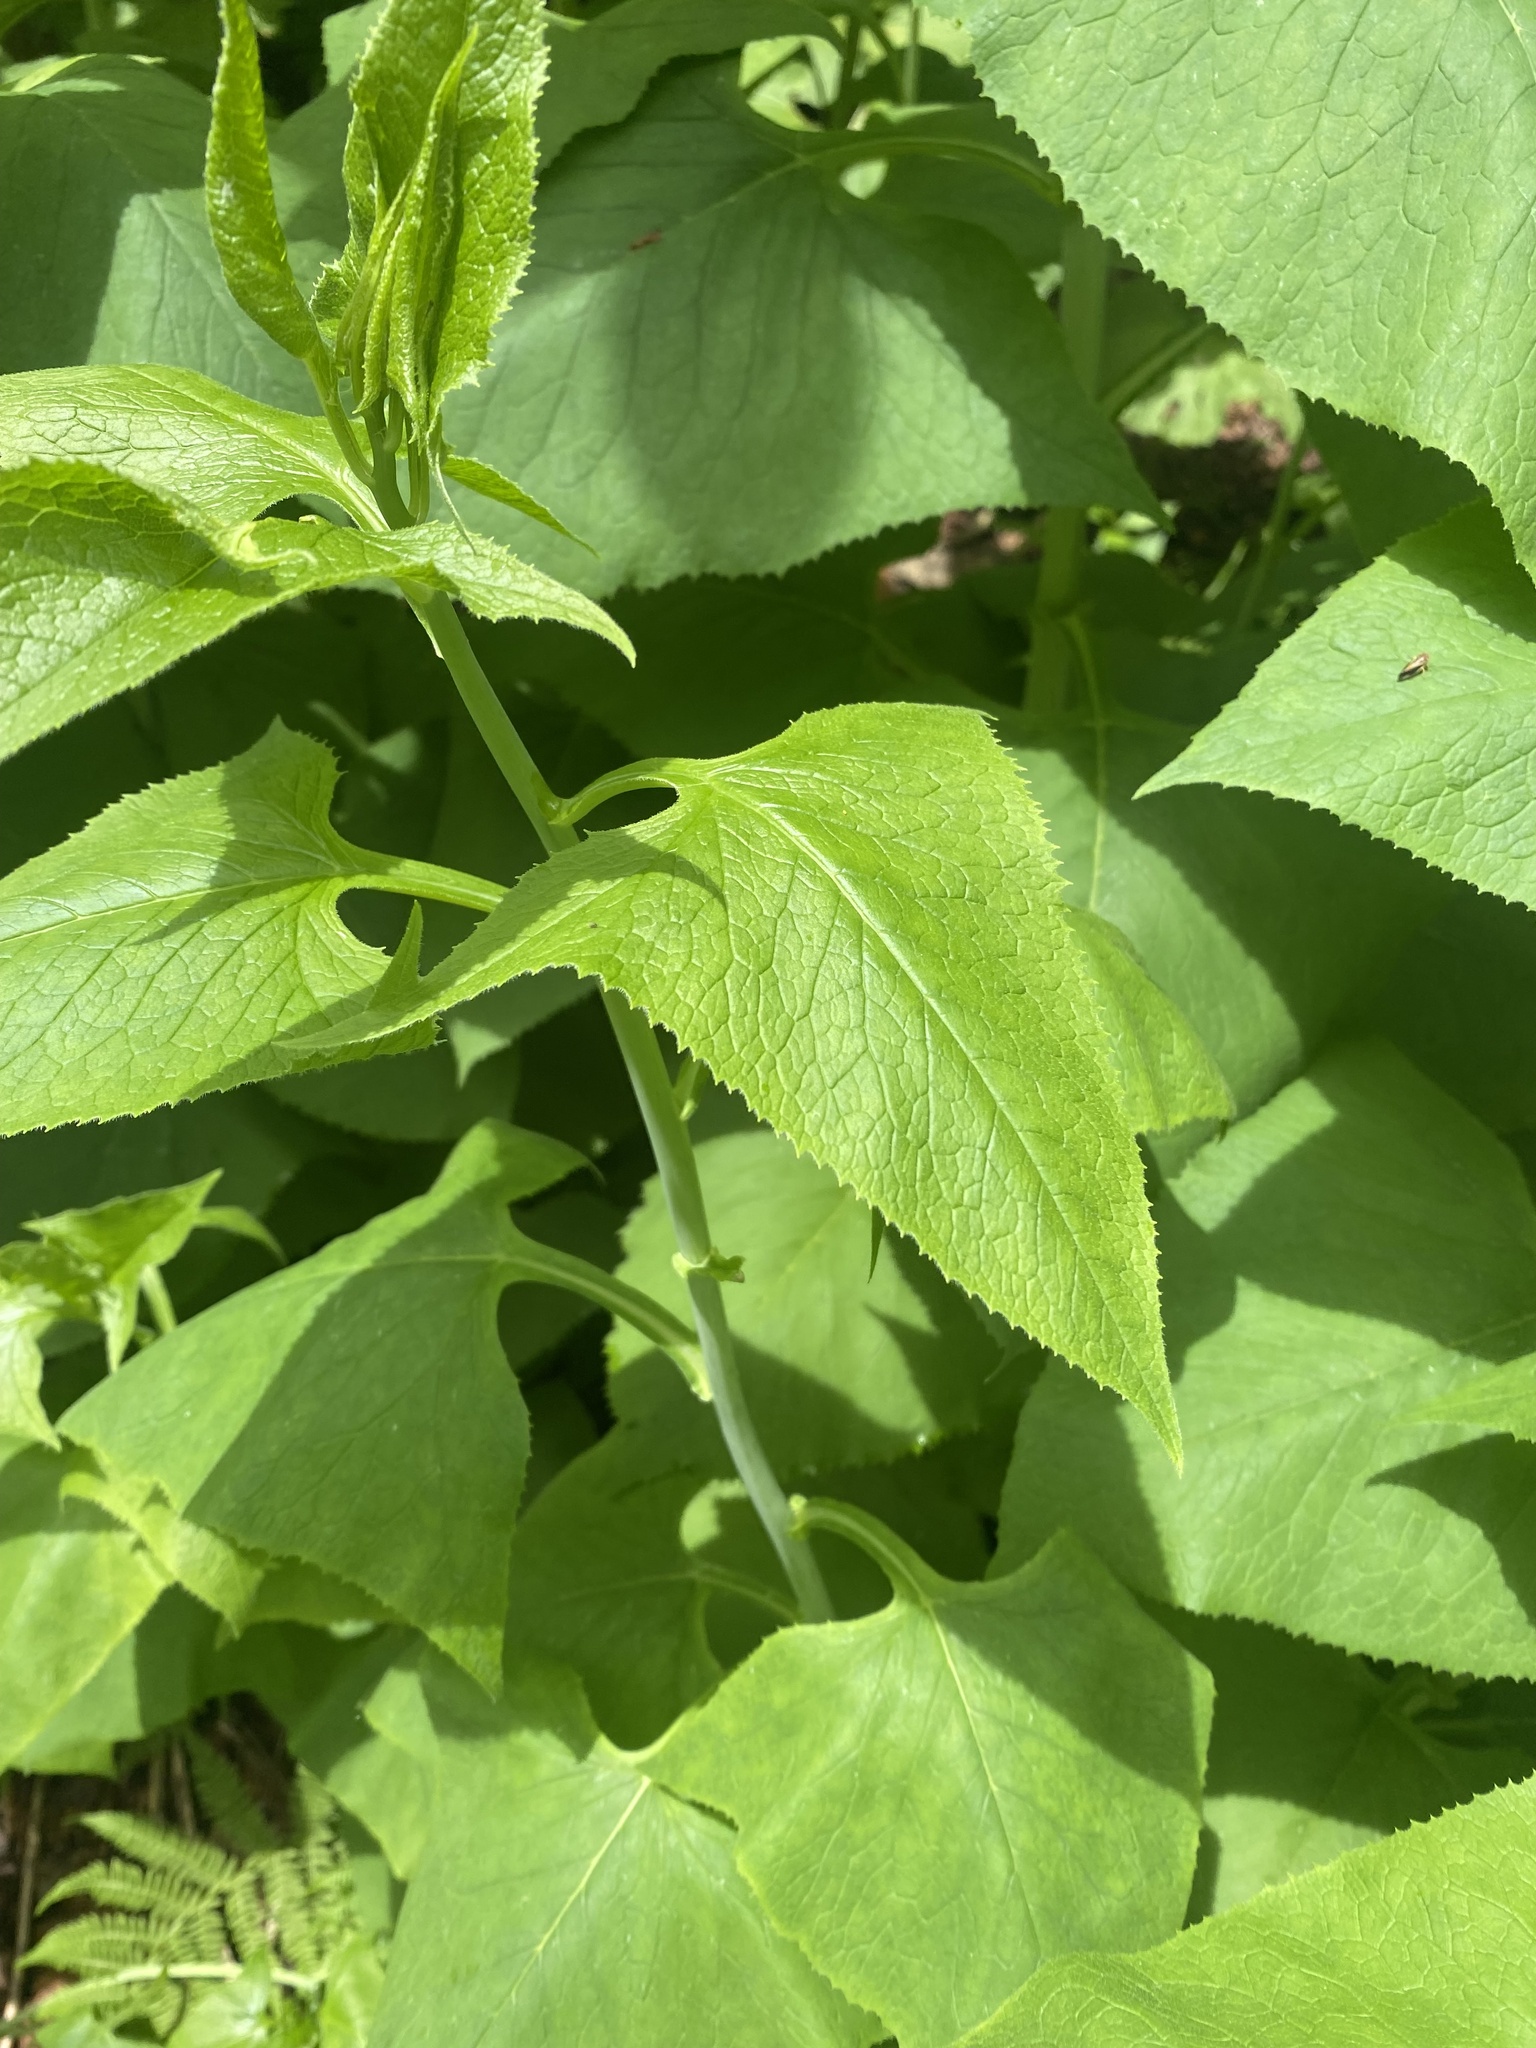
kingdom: Plantae
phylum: Tracheophyta
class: Magnoliopsida
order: Asterales
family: Asteraceae
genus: Parasenecio
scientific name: Parasenecio hastatus
